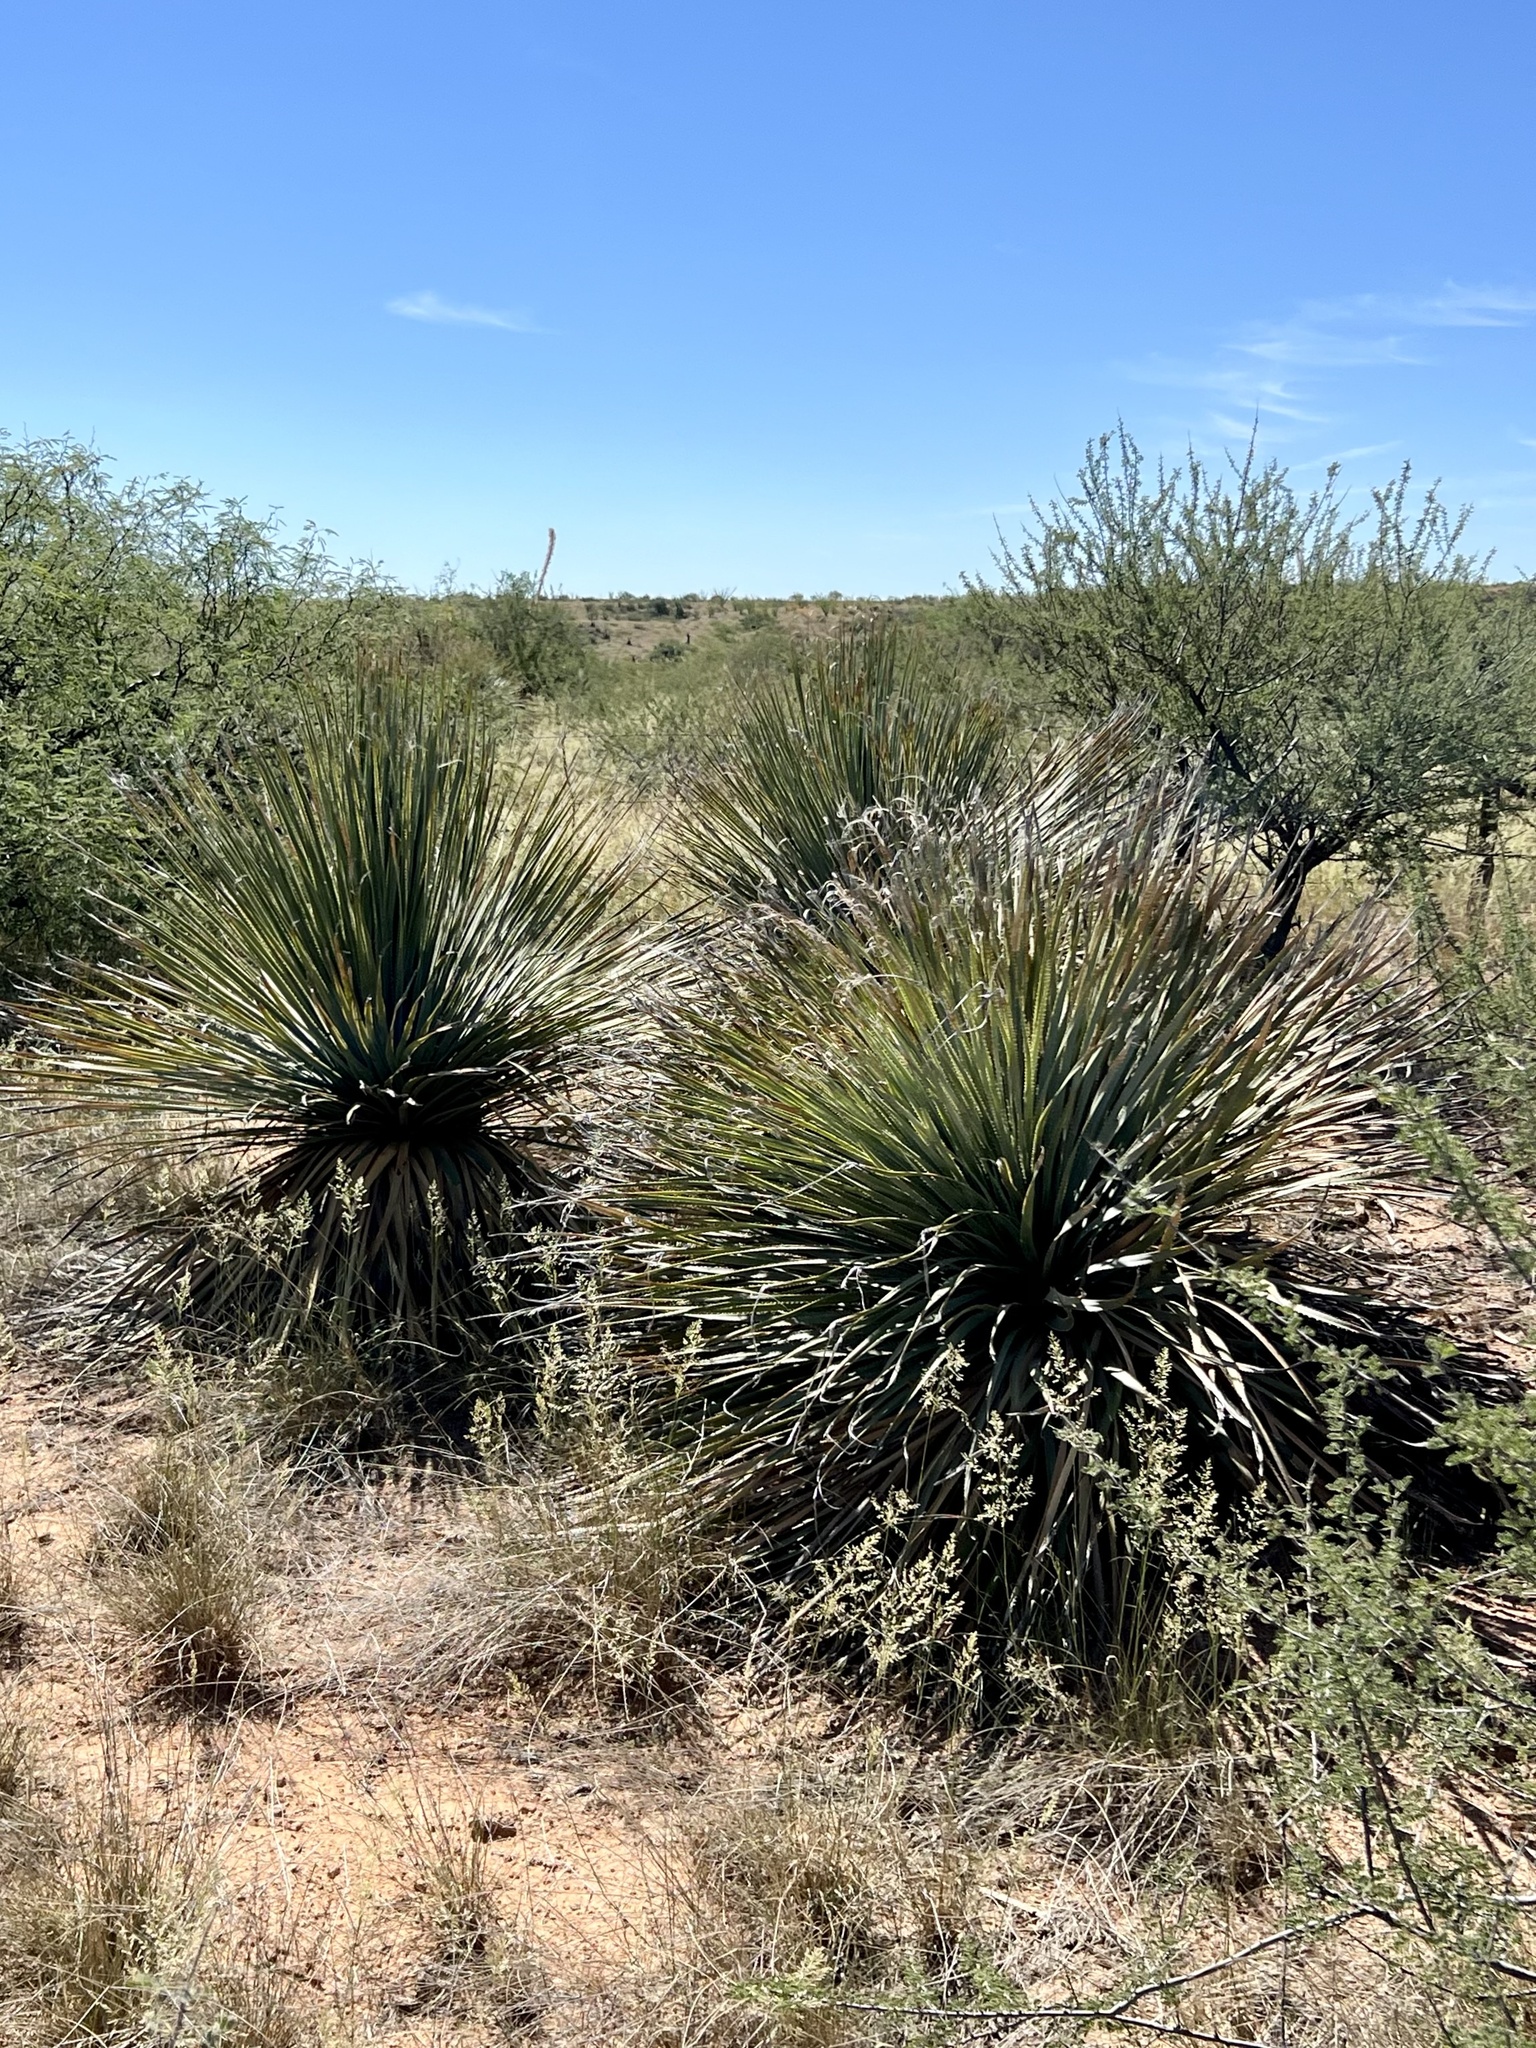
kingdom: Plantae
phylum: Tracheophyta
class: Liliopsida
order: Asparagales
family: Asparagaceae
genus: Dasylirion
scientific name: Dasylirion wheeleri
